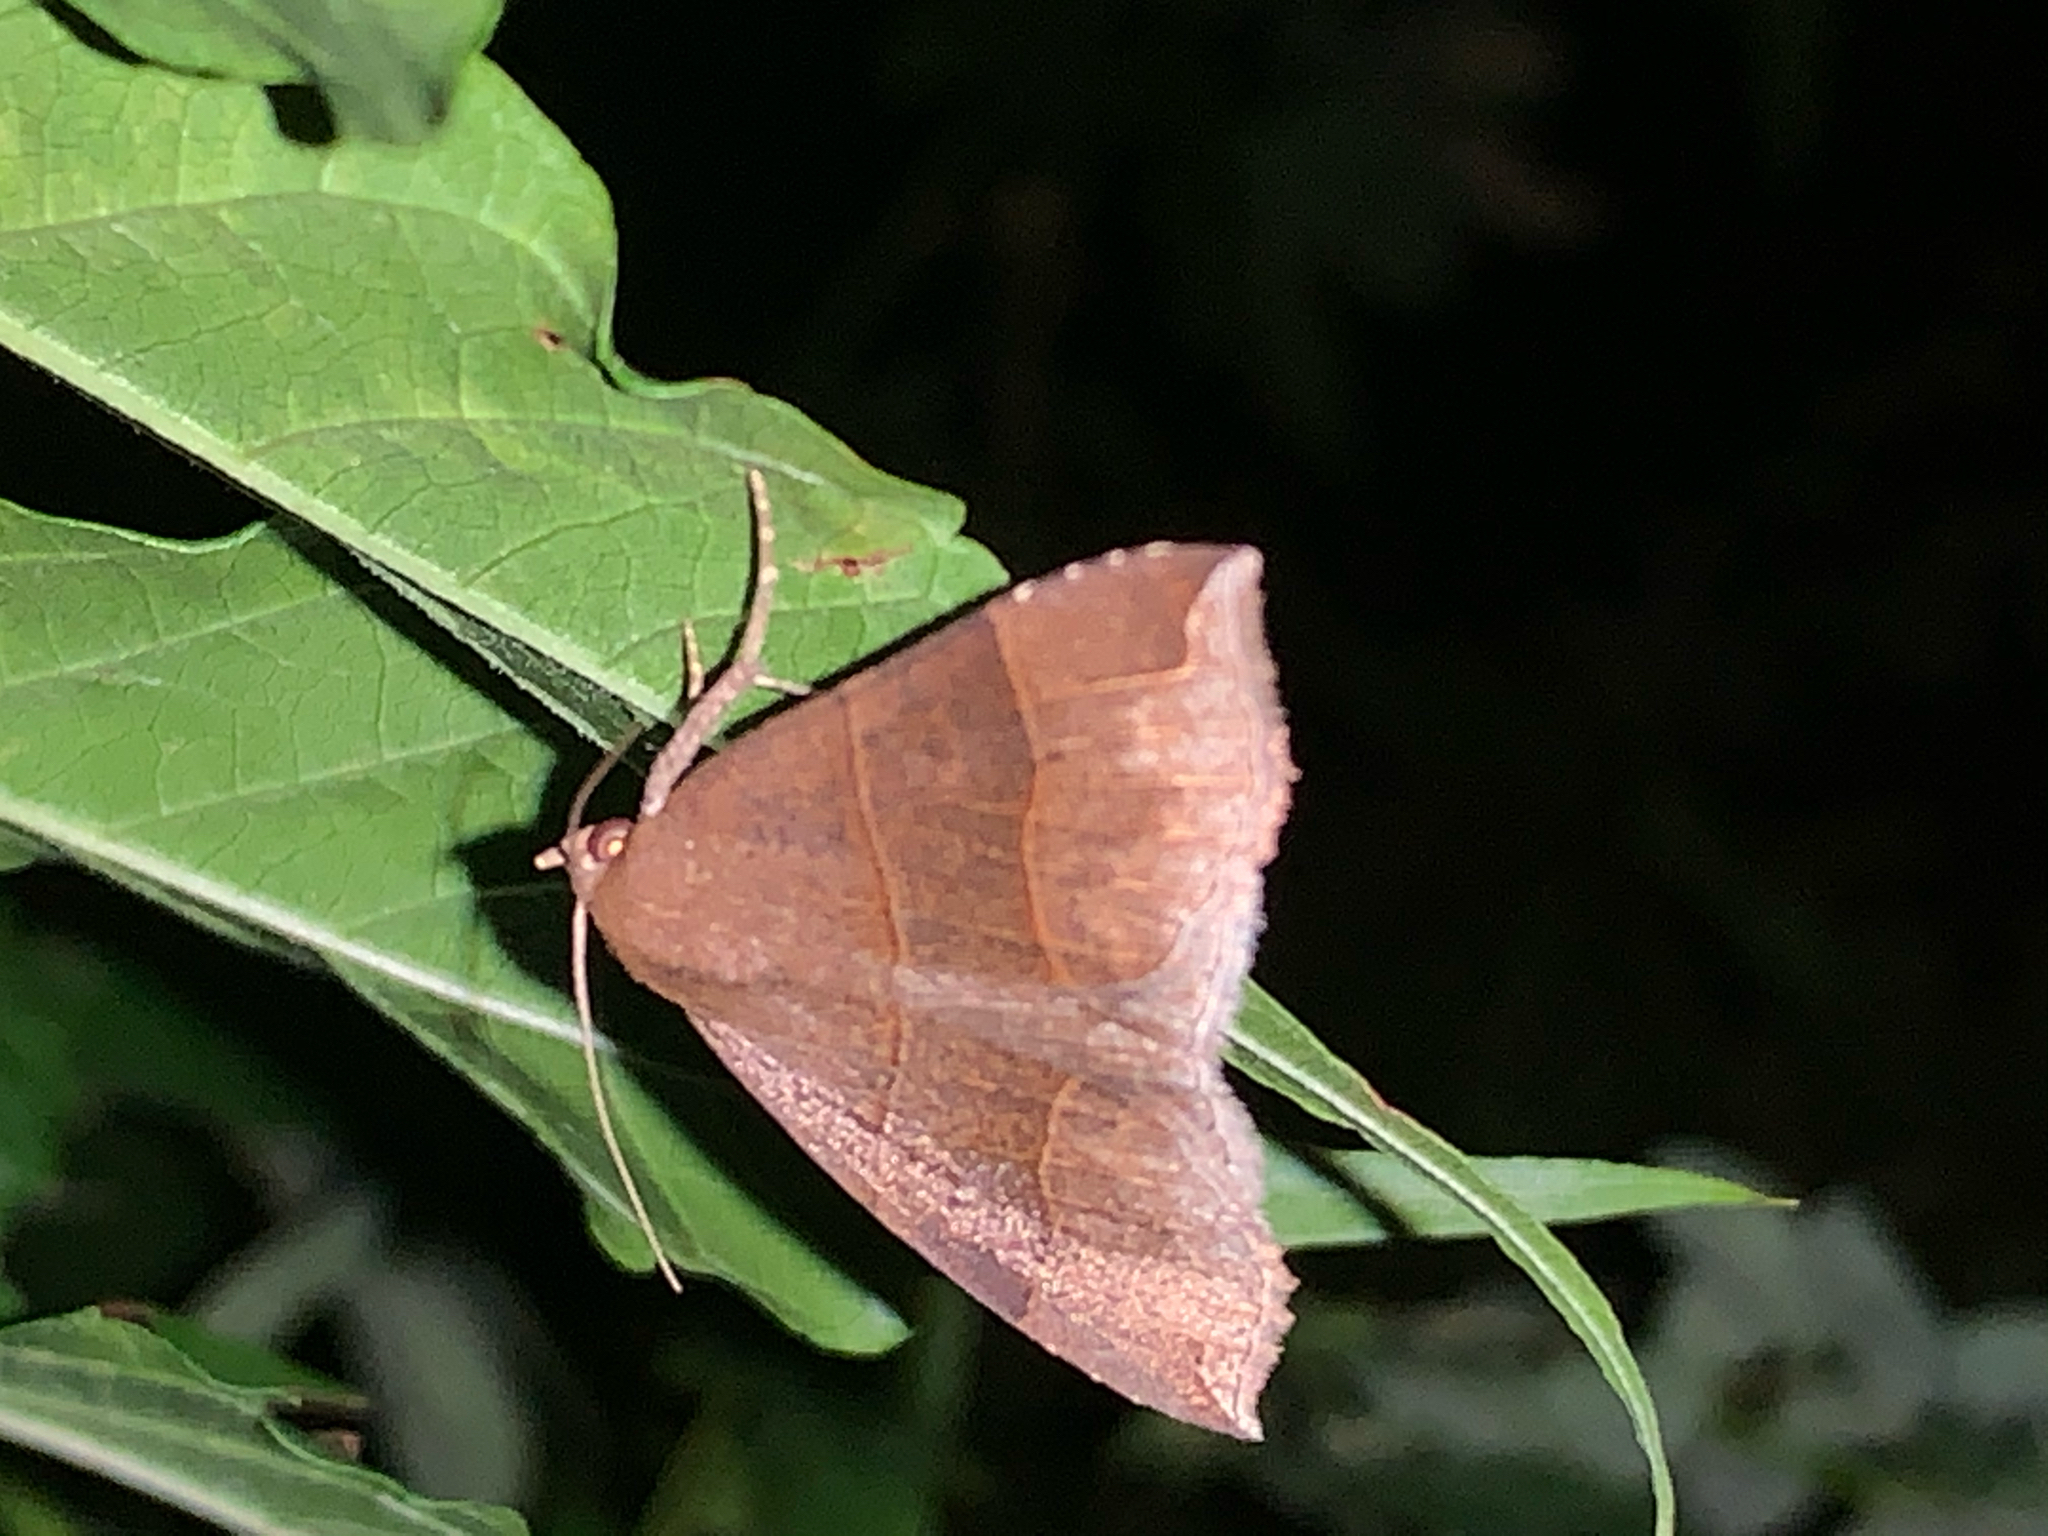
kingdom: Animalia
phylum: Arthropoda
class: Insecta
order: Lepidoptera
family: Erebidae
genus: Parallelia
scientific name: Parallelia bistriaris
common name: Maple looper moth
